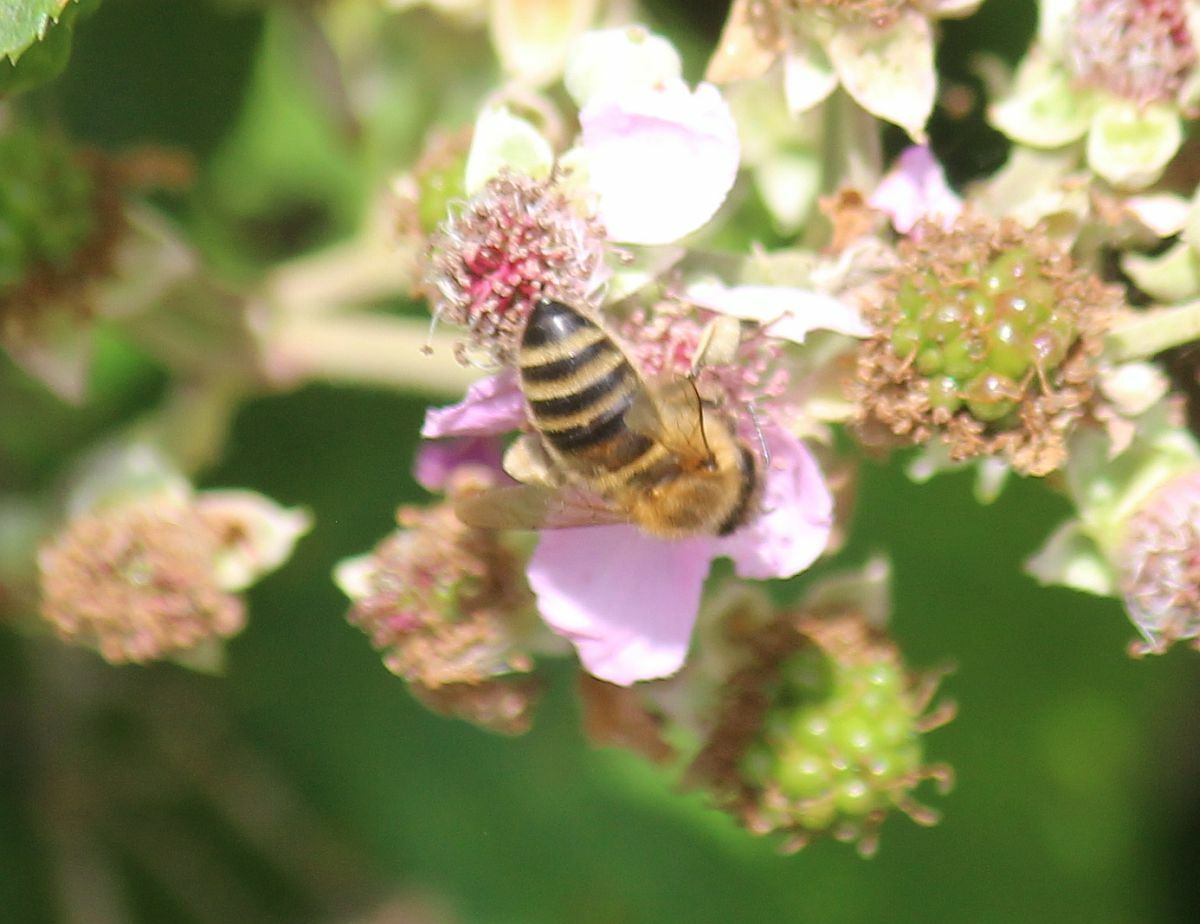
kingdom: Animalia
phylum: Arthropoda
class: Insecta
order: Hymenoptera
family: Apidae
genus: Apis
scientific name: Apis mellifera
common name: Honey bee
